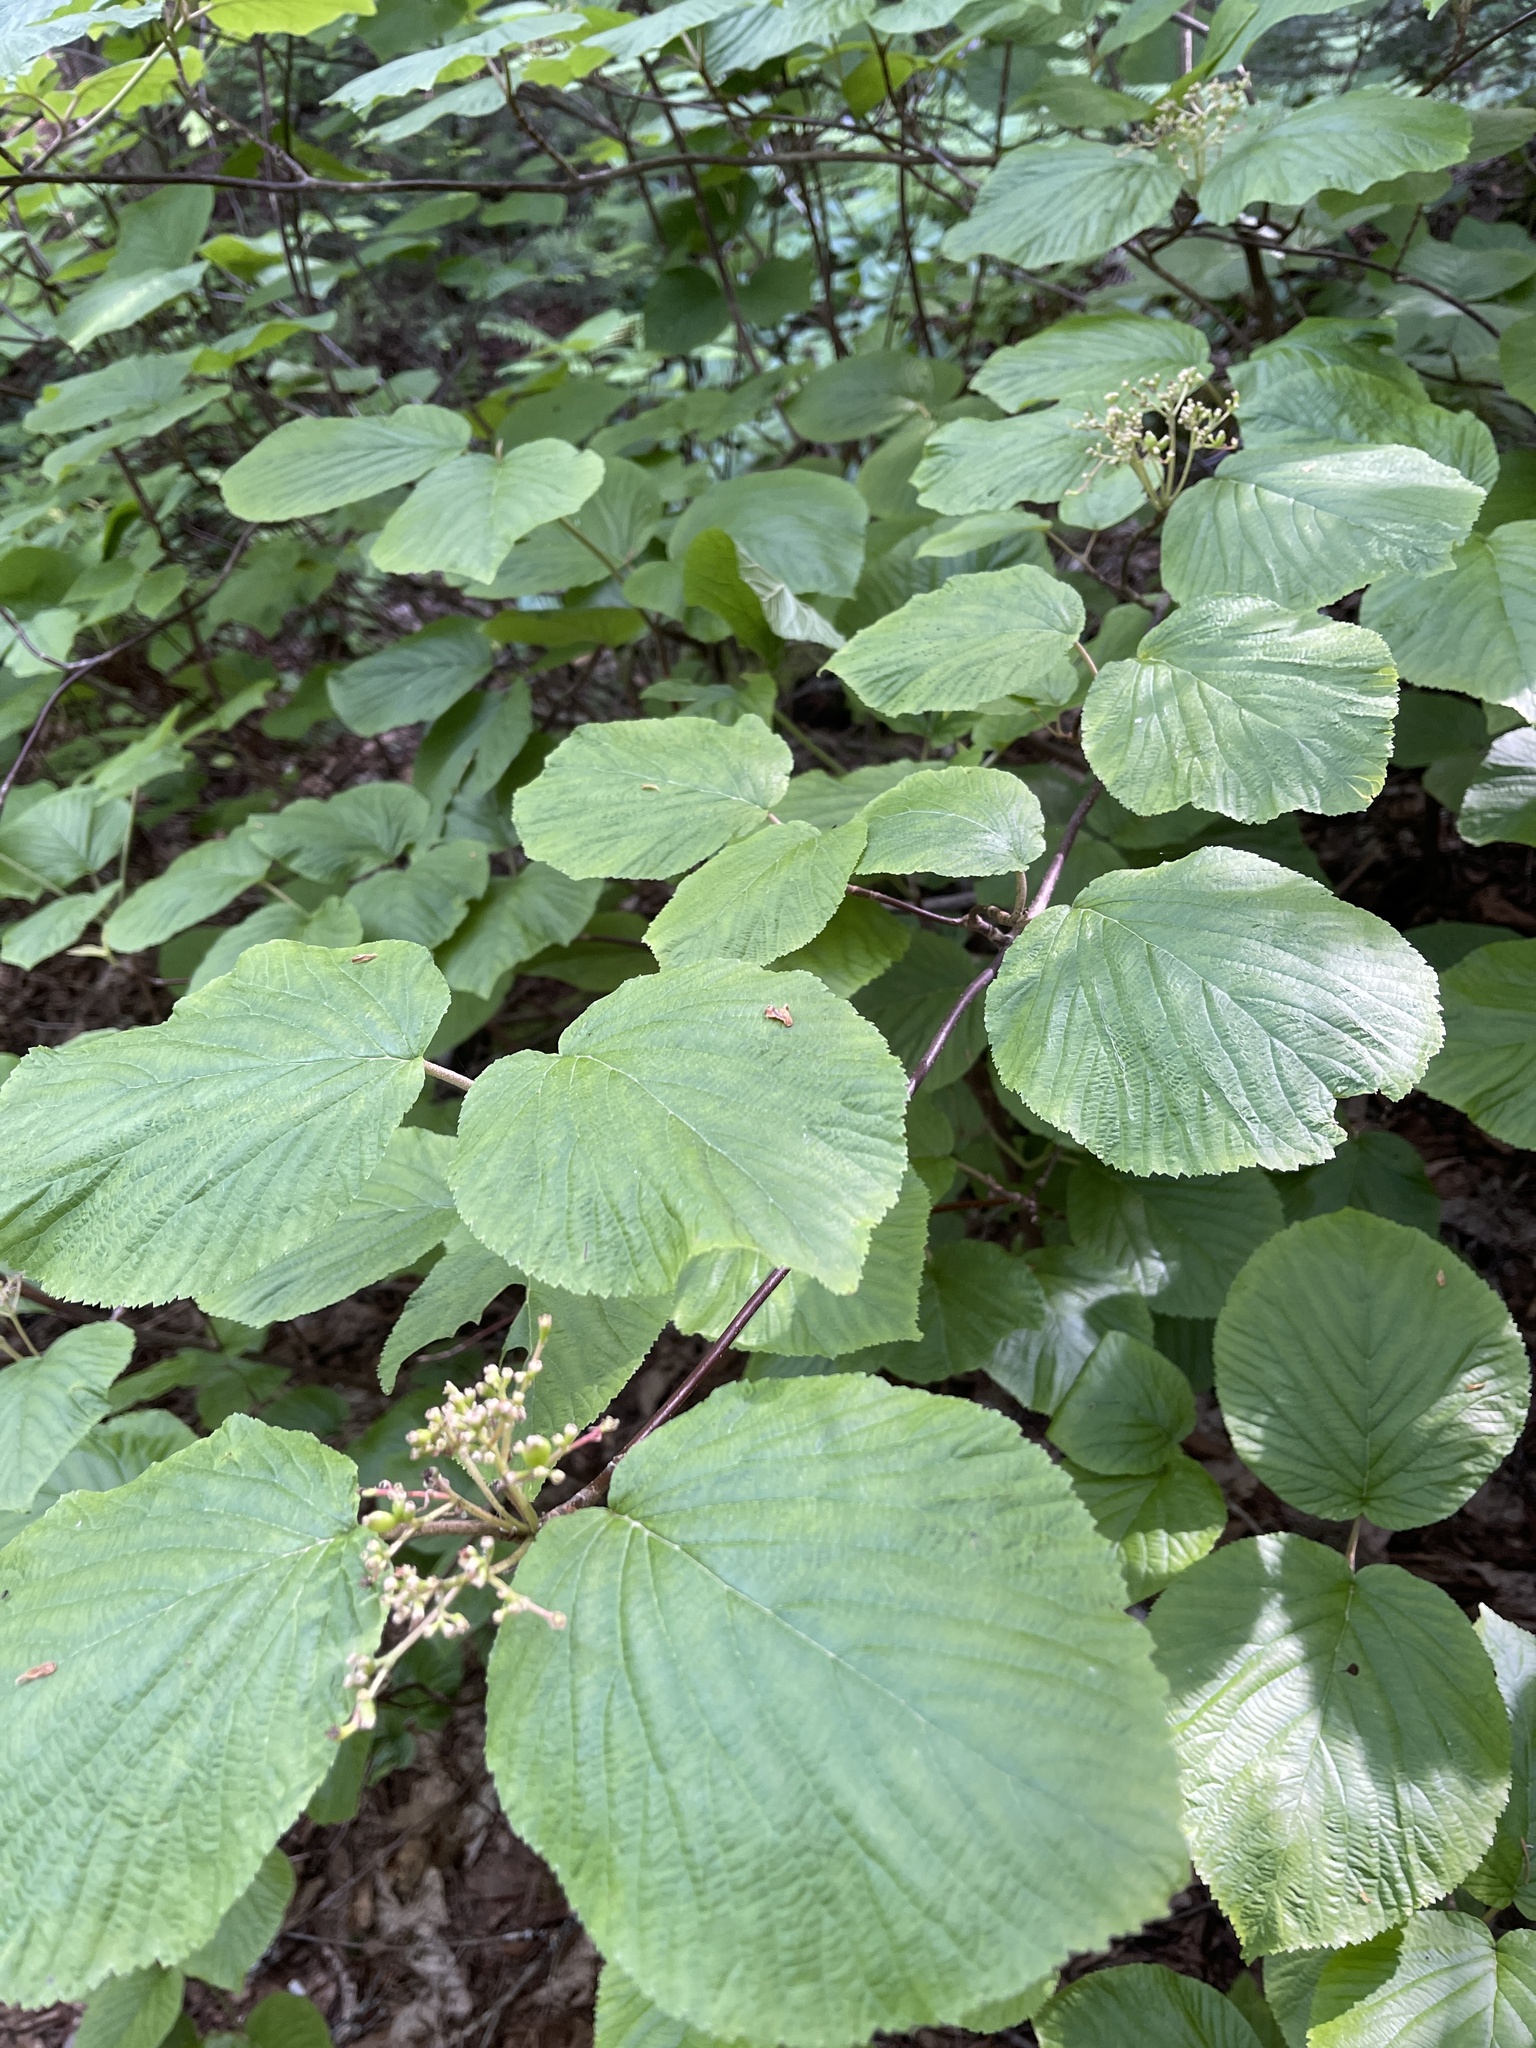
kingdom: Plantae
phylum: Tracheophyta
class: Magnoliopsida
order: Dipsacales
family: Viburnaceae
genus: Viburnum
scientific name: Viburnum lantanoides
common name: Hobblebush
